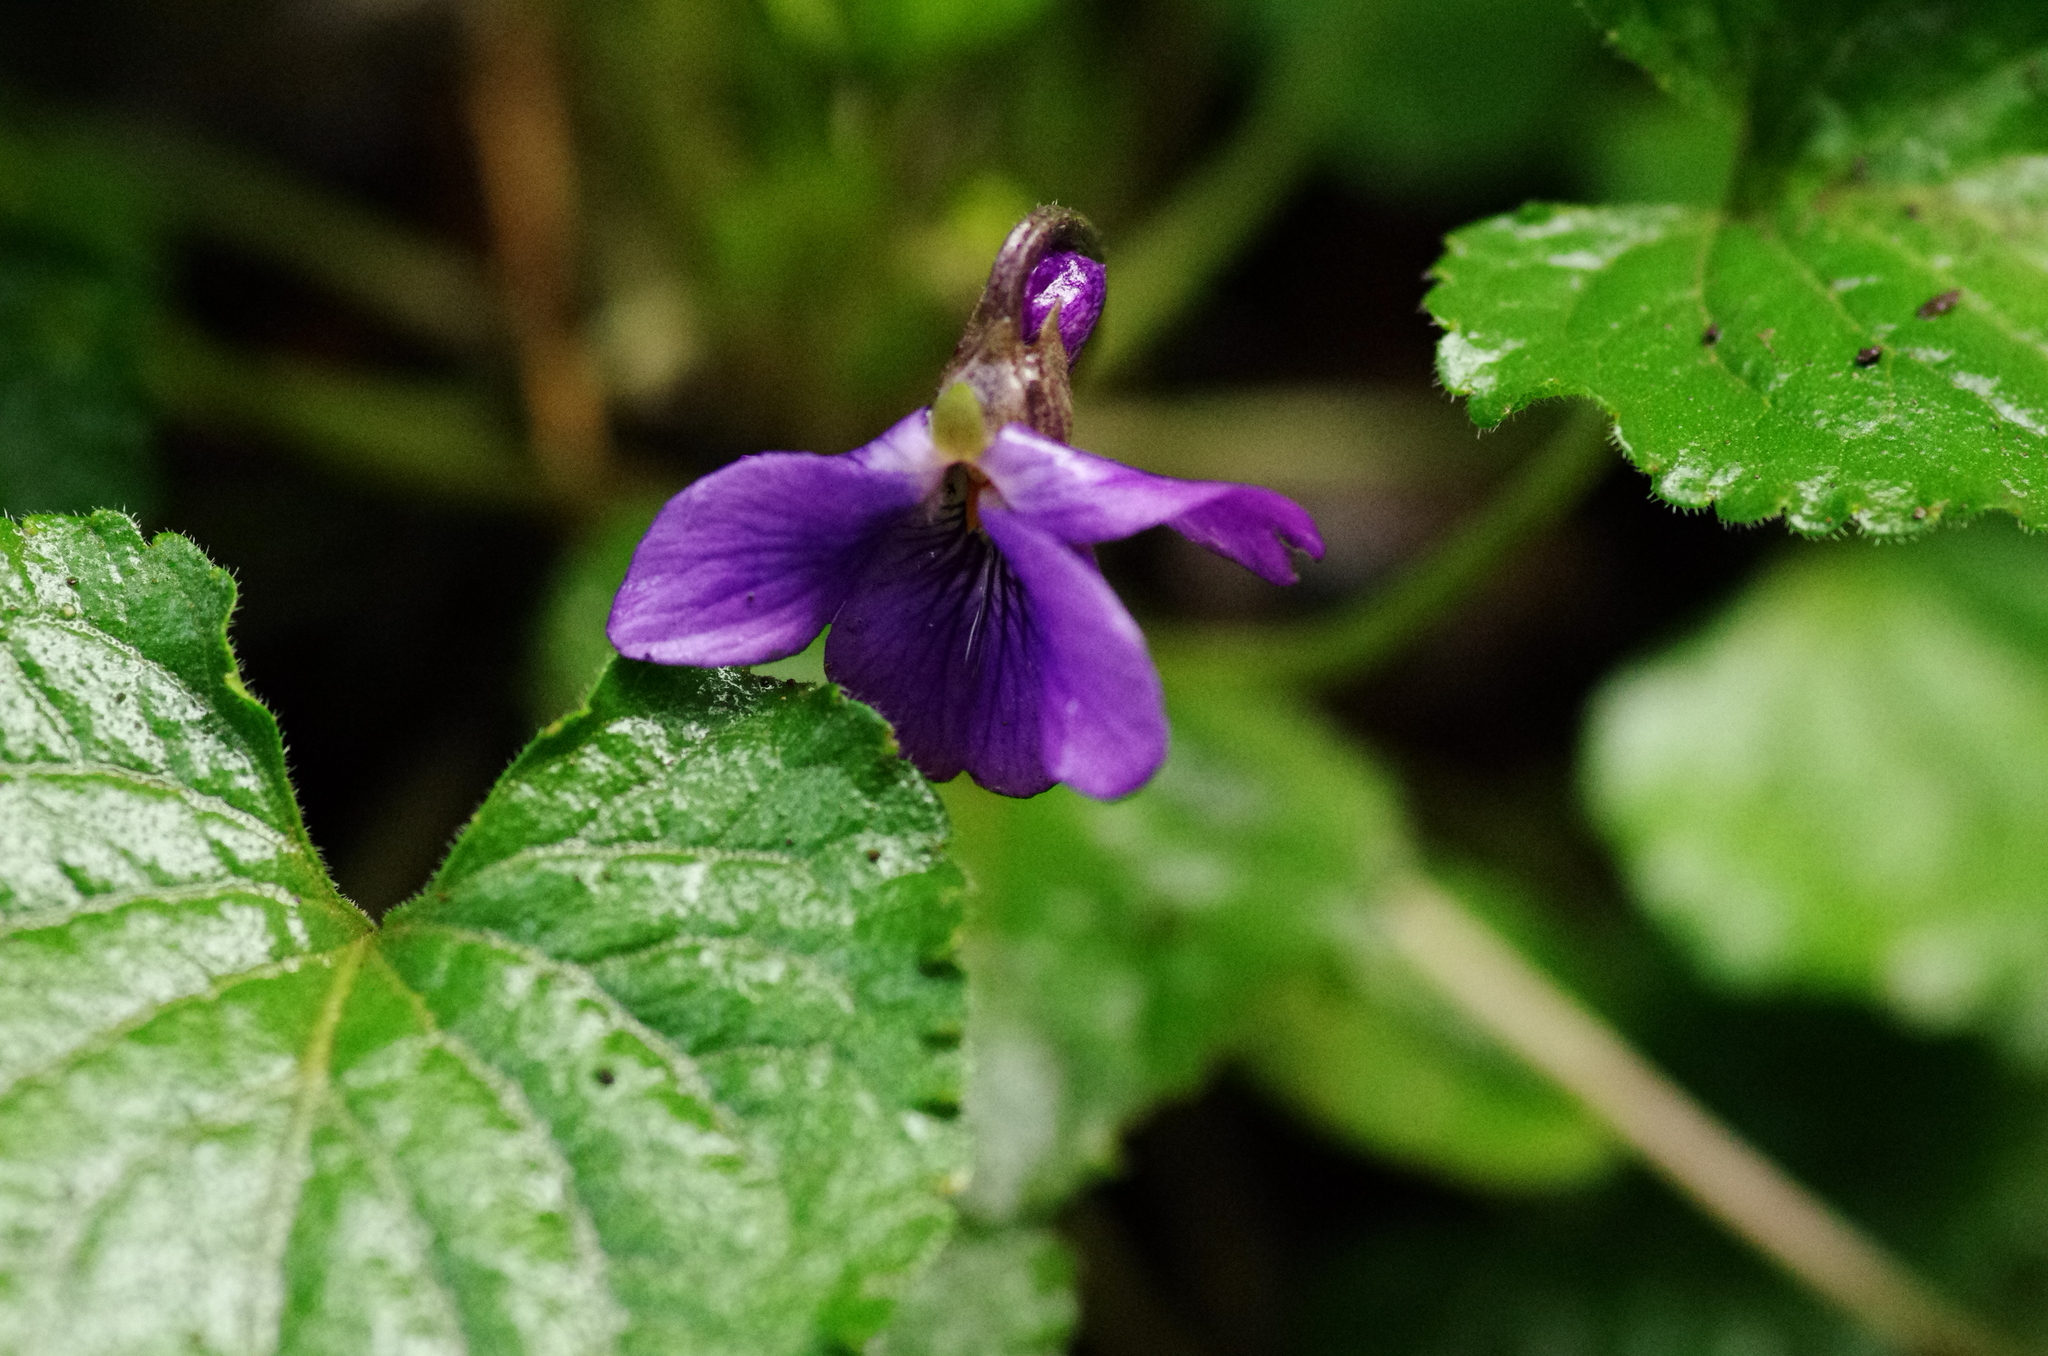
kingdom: Plantae
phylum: Tracheophyta
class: Magnoliopsida
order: Malpighiales
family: Violaceae
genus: Viola
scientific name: Viola odorata
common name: Sweet violet
